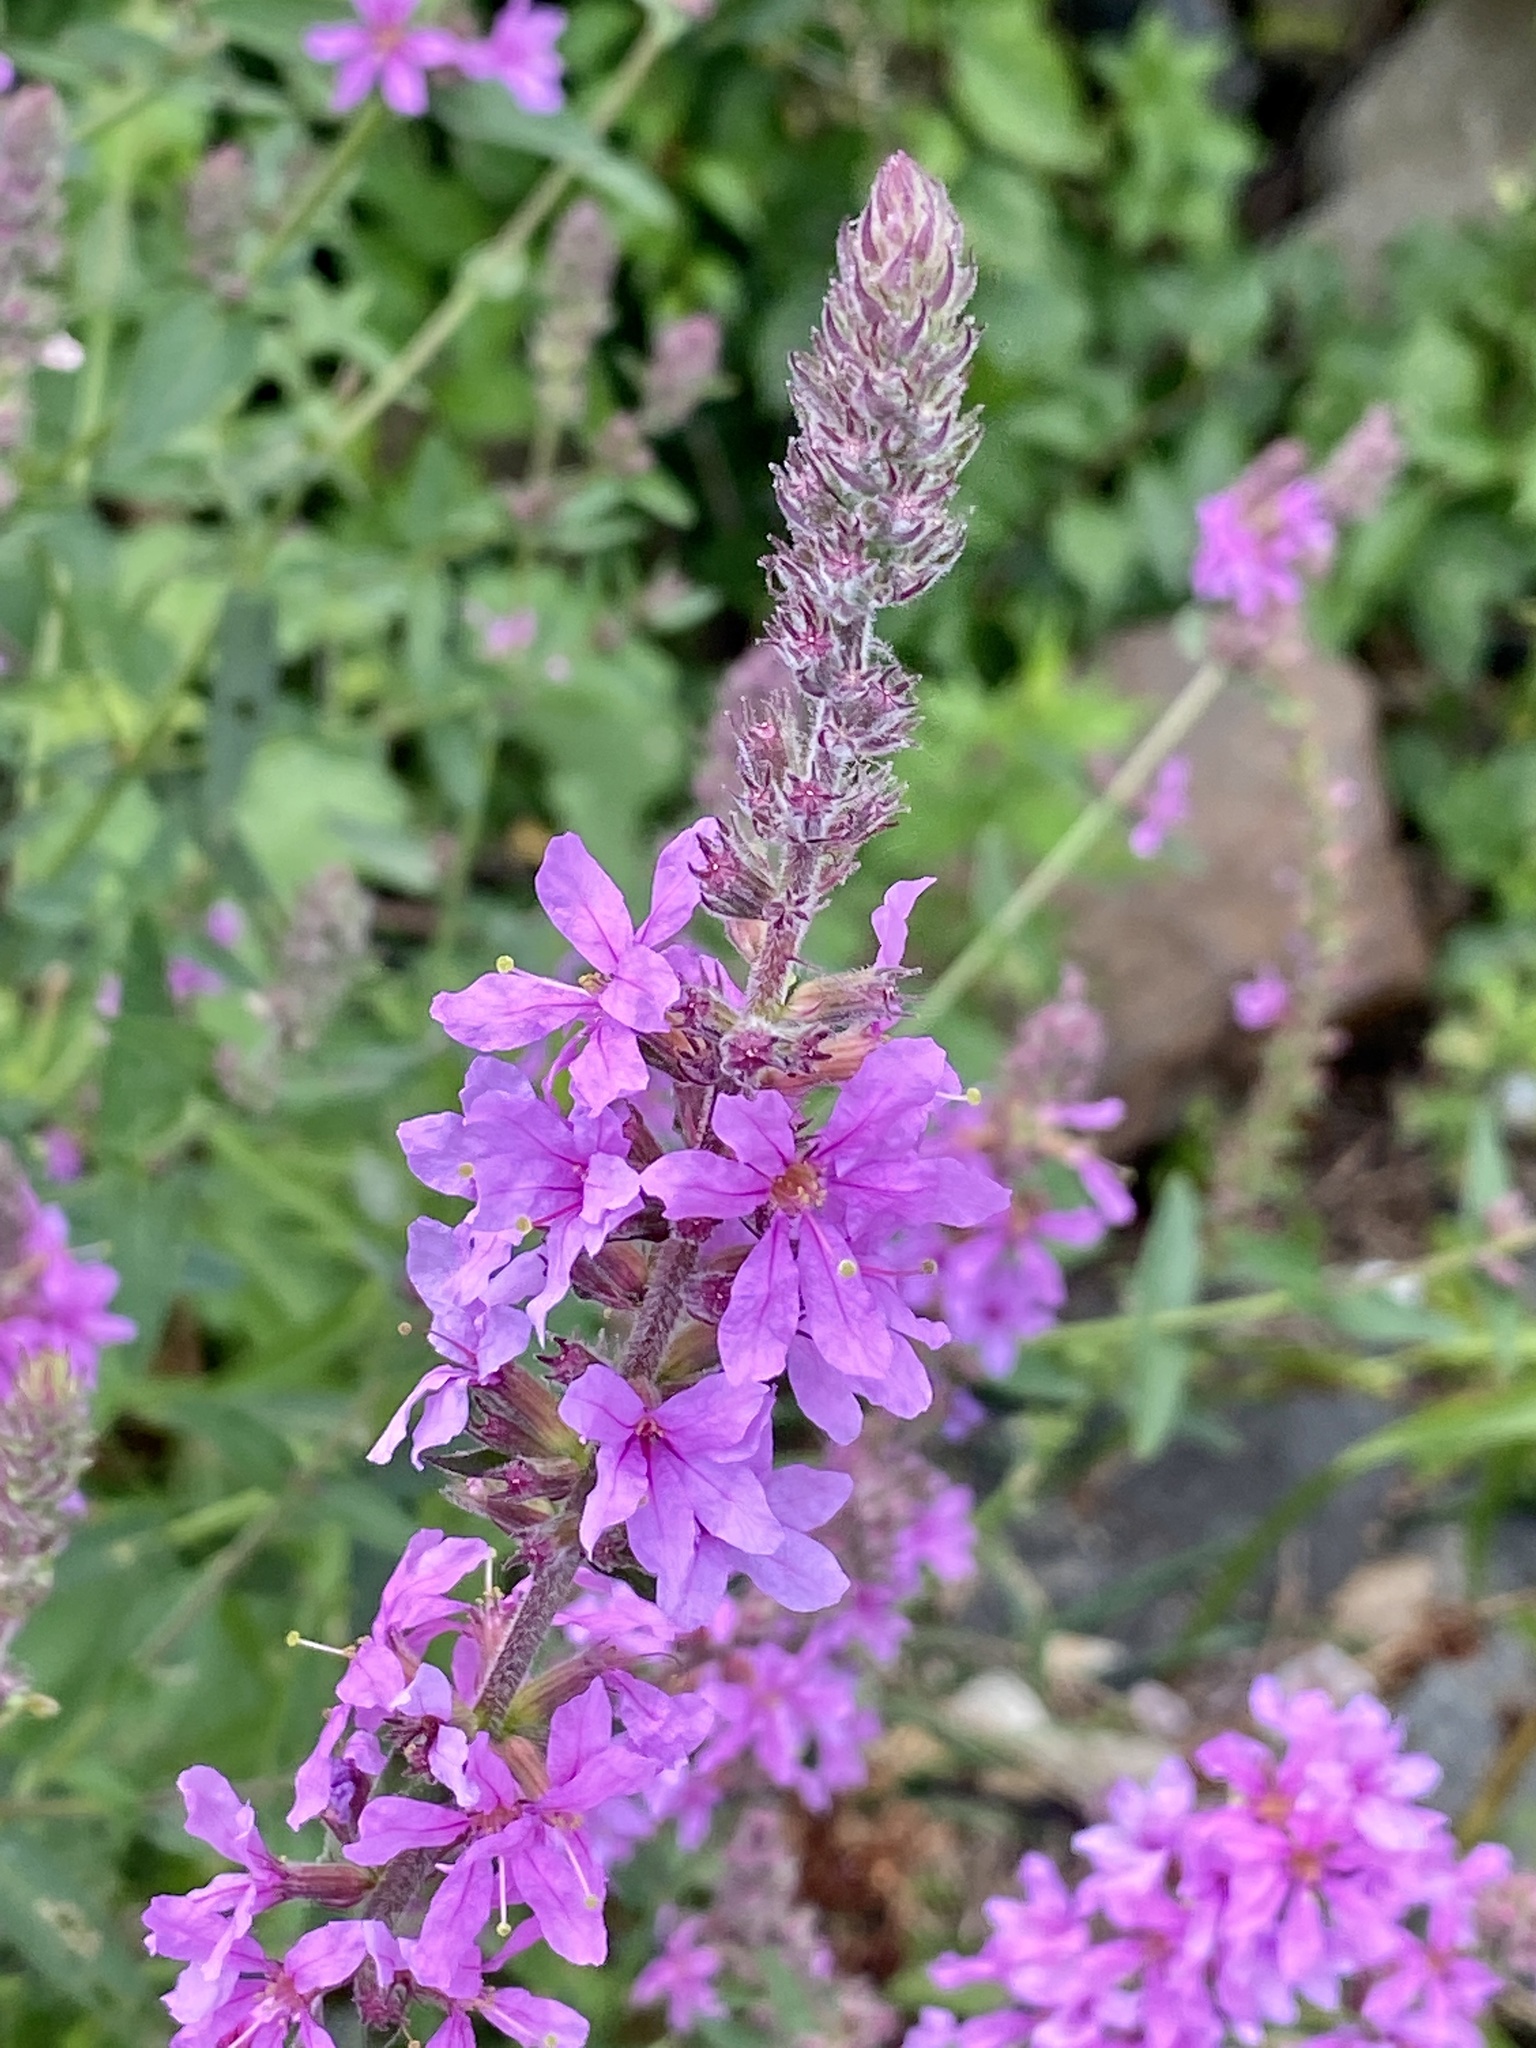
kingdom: Plantae
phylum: Tracheophyta
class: Magnoliopsida
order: Myrtales
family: Lythraceae
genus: Lythrum
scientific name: Lythrum salicaria
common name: Purple loosestrife
